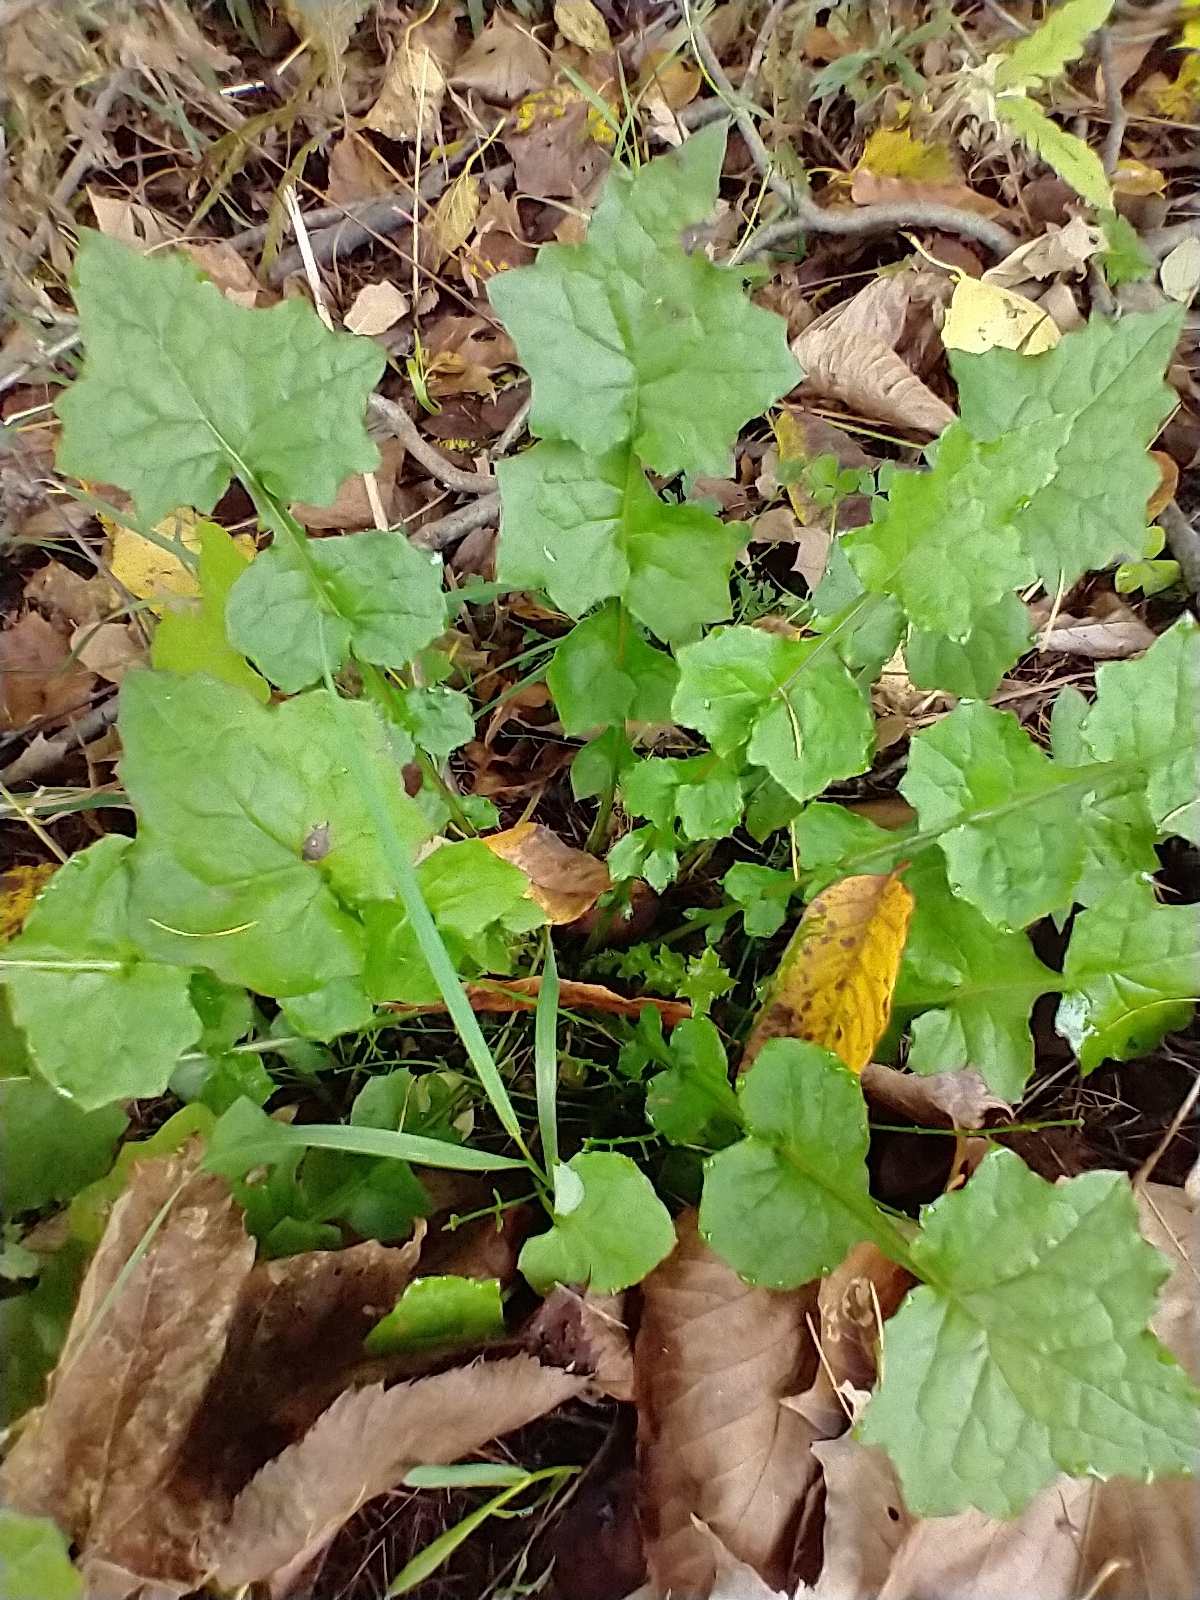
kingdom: Plantae
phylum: Tracheophyta
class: Magnoliopsida
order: Asterales
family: Asteraceae
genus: Mycelis
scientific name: Mycelis muralis
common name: Wall lettuce
